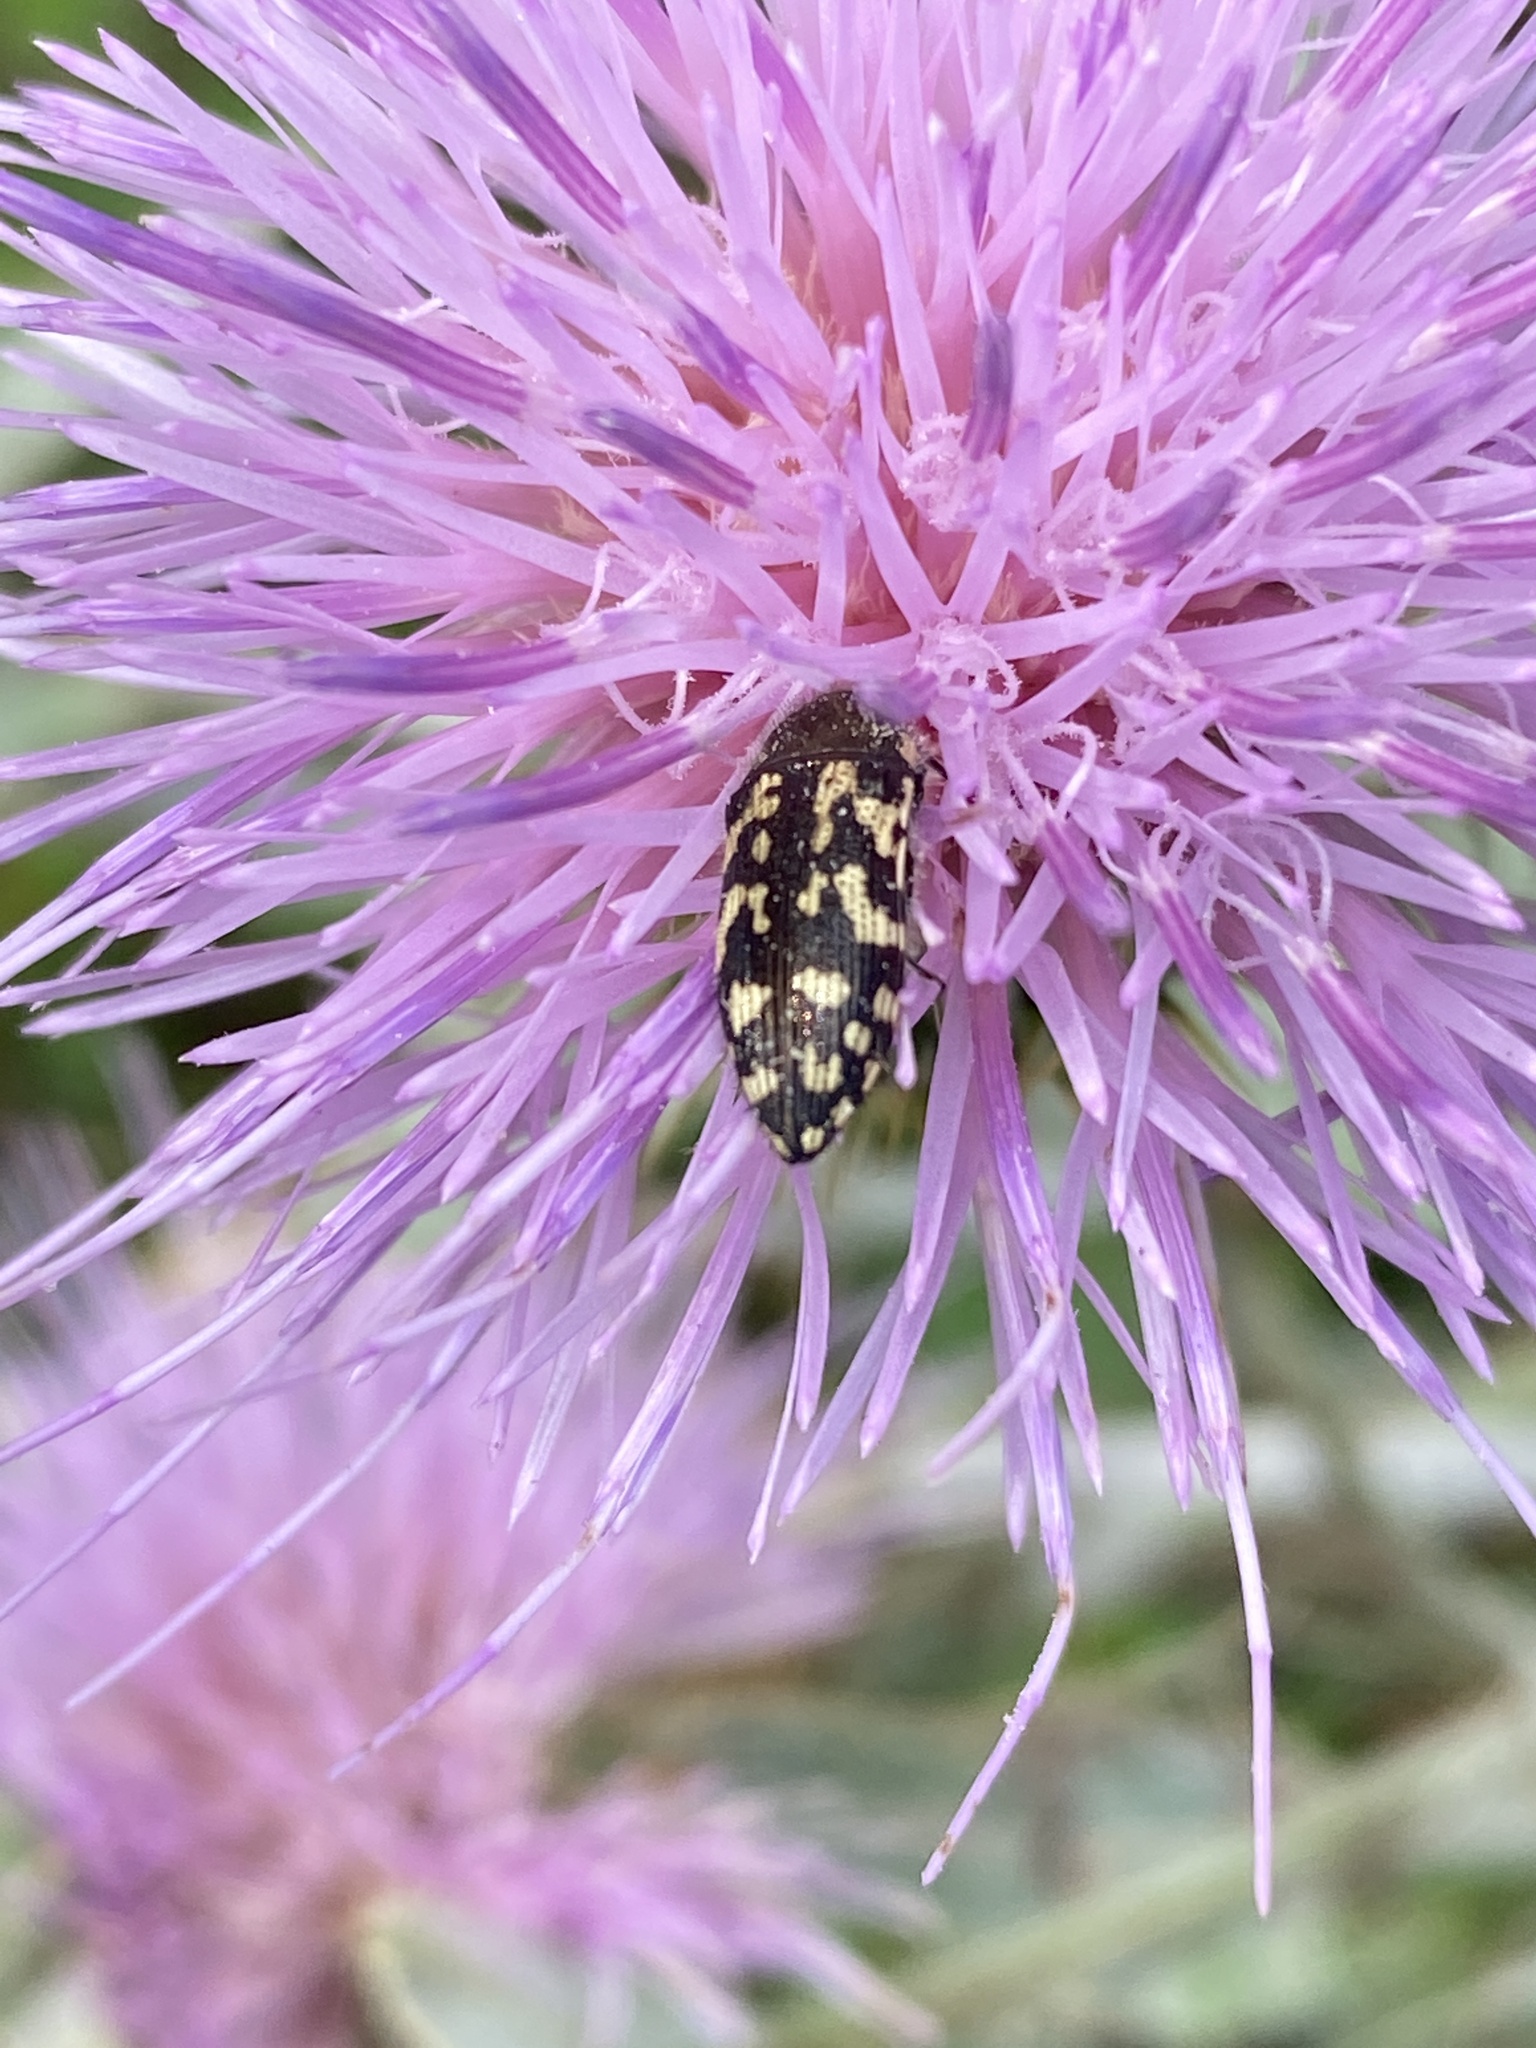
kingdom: Animalia
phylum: Arthropoda
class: Insecta
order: Coleoptera
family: Buprestidae
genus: Acmaeodera
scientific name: Acmaeodera mixta
